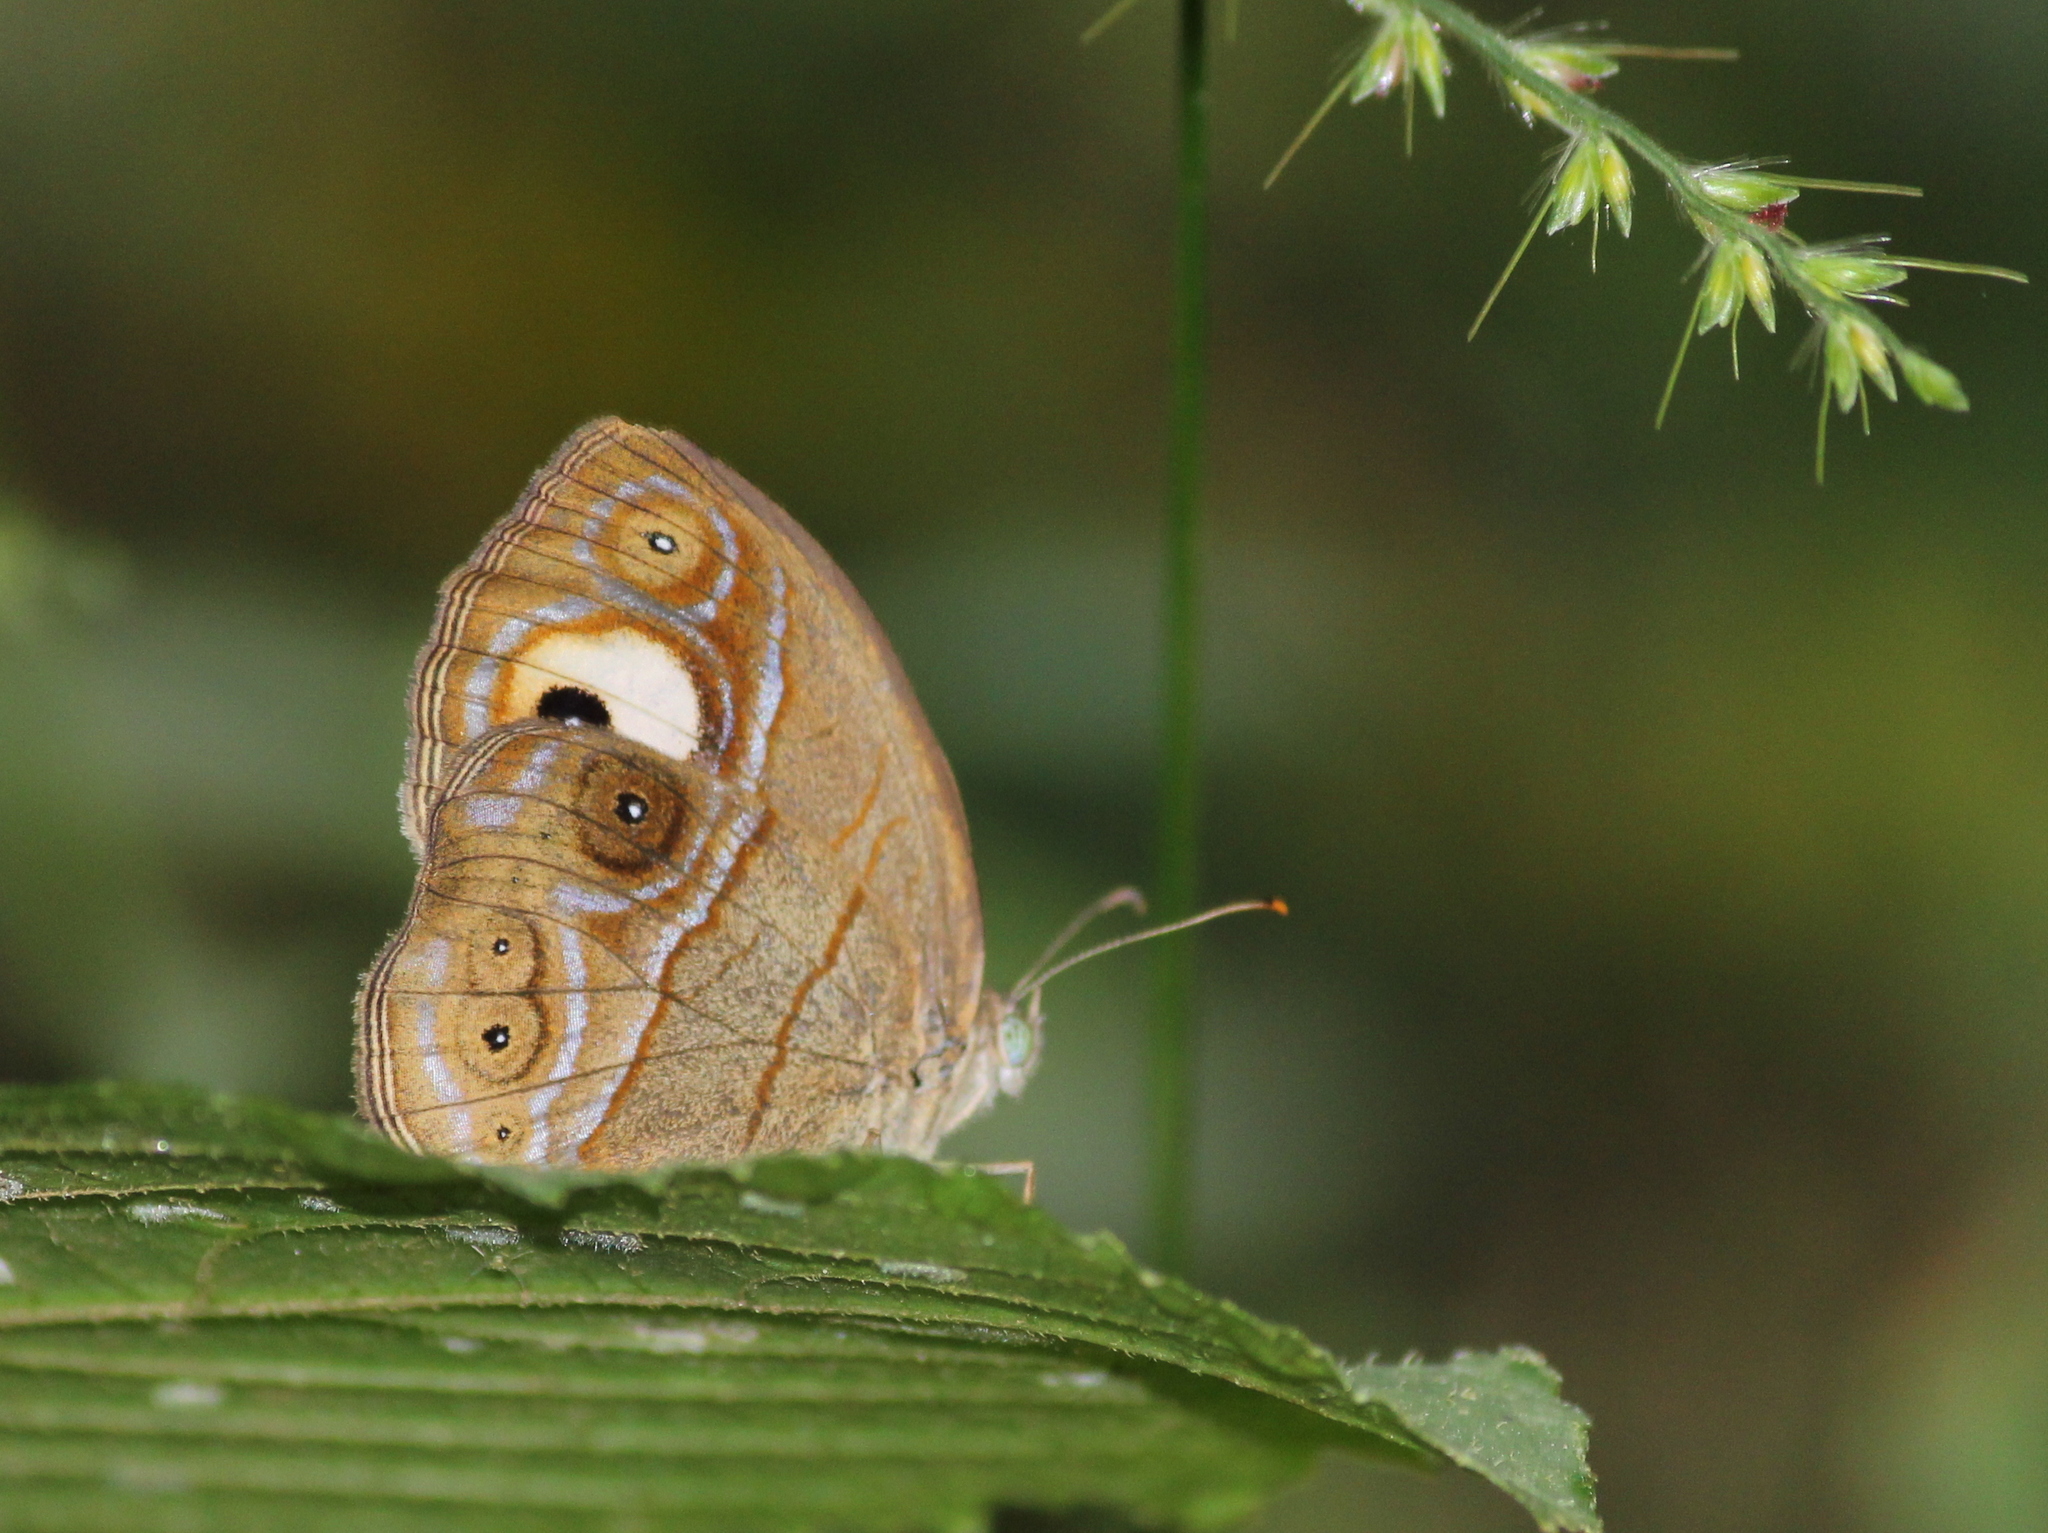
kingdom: Animalia
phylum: Arthropoda
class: Insecta
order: Lepidoptera
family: Nymphalidae
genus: Mycalesis
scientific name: Mycalesis patnia
